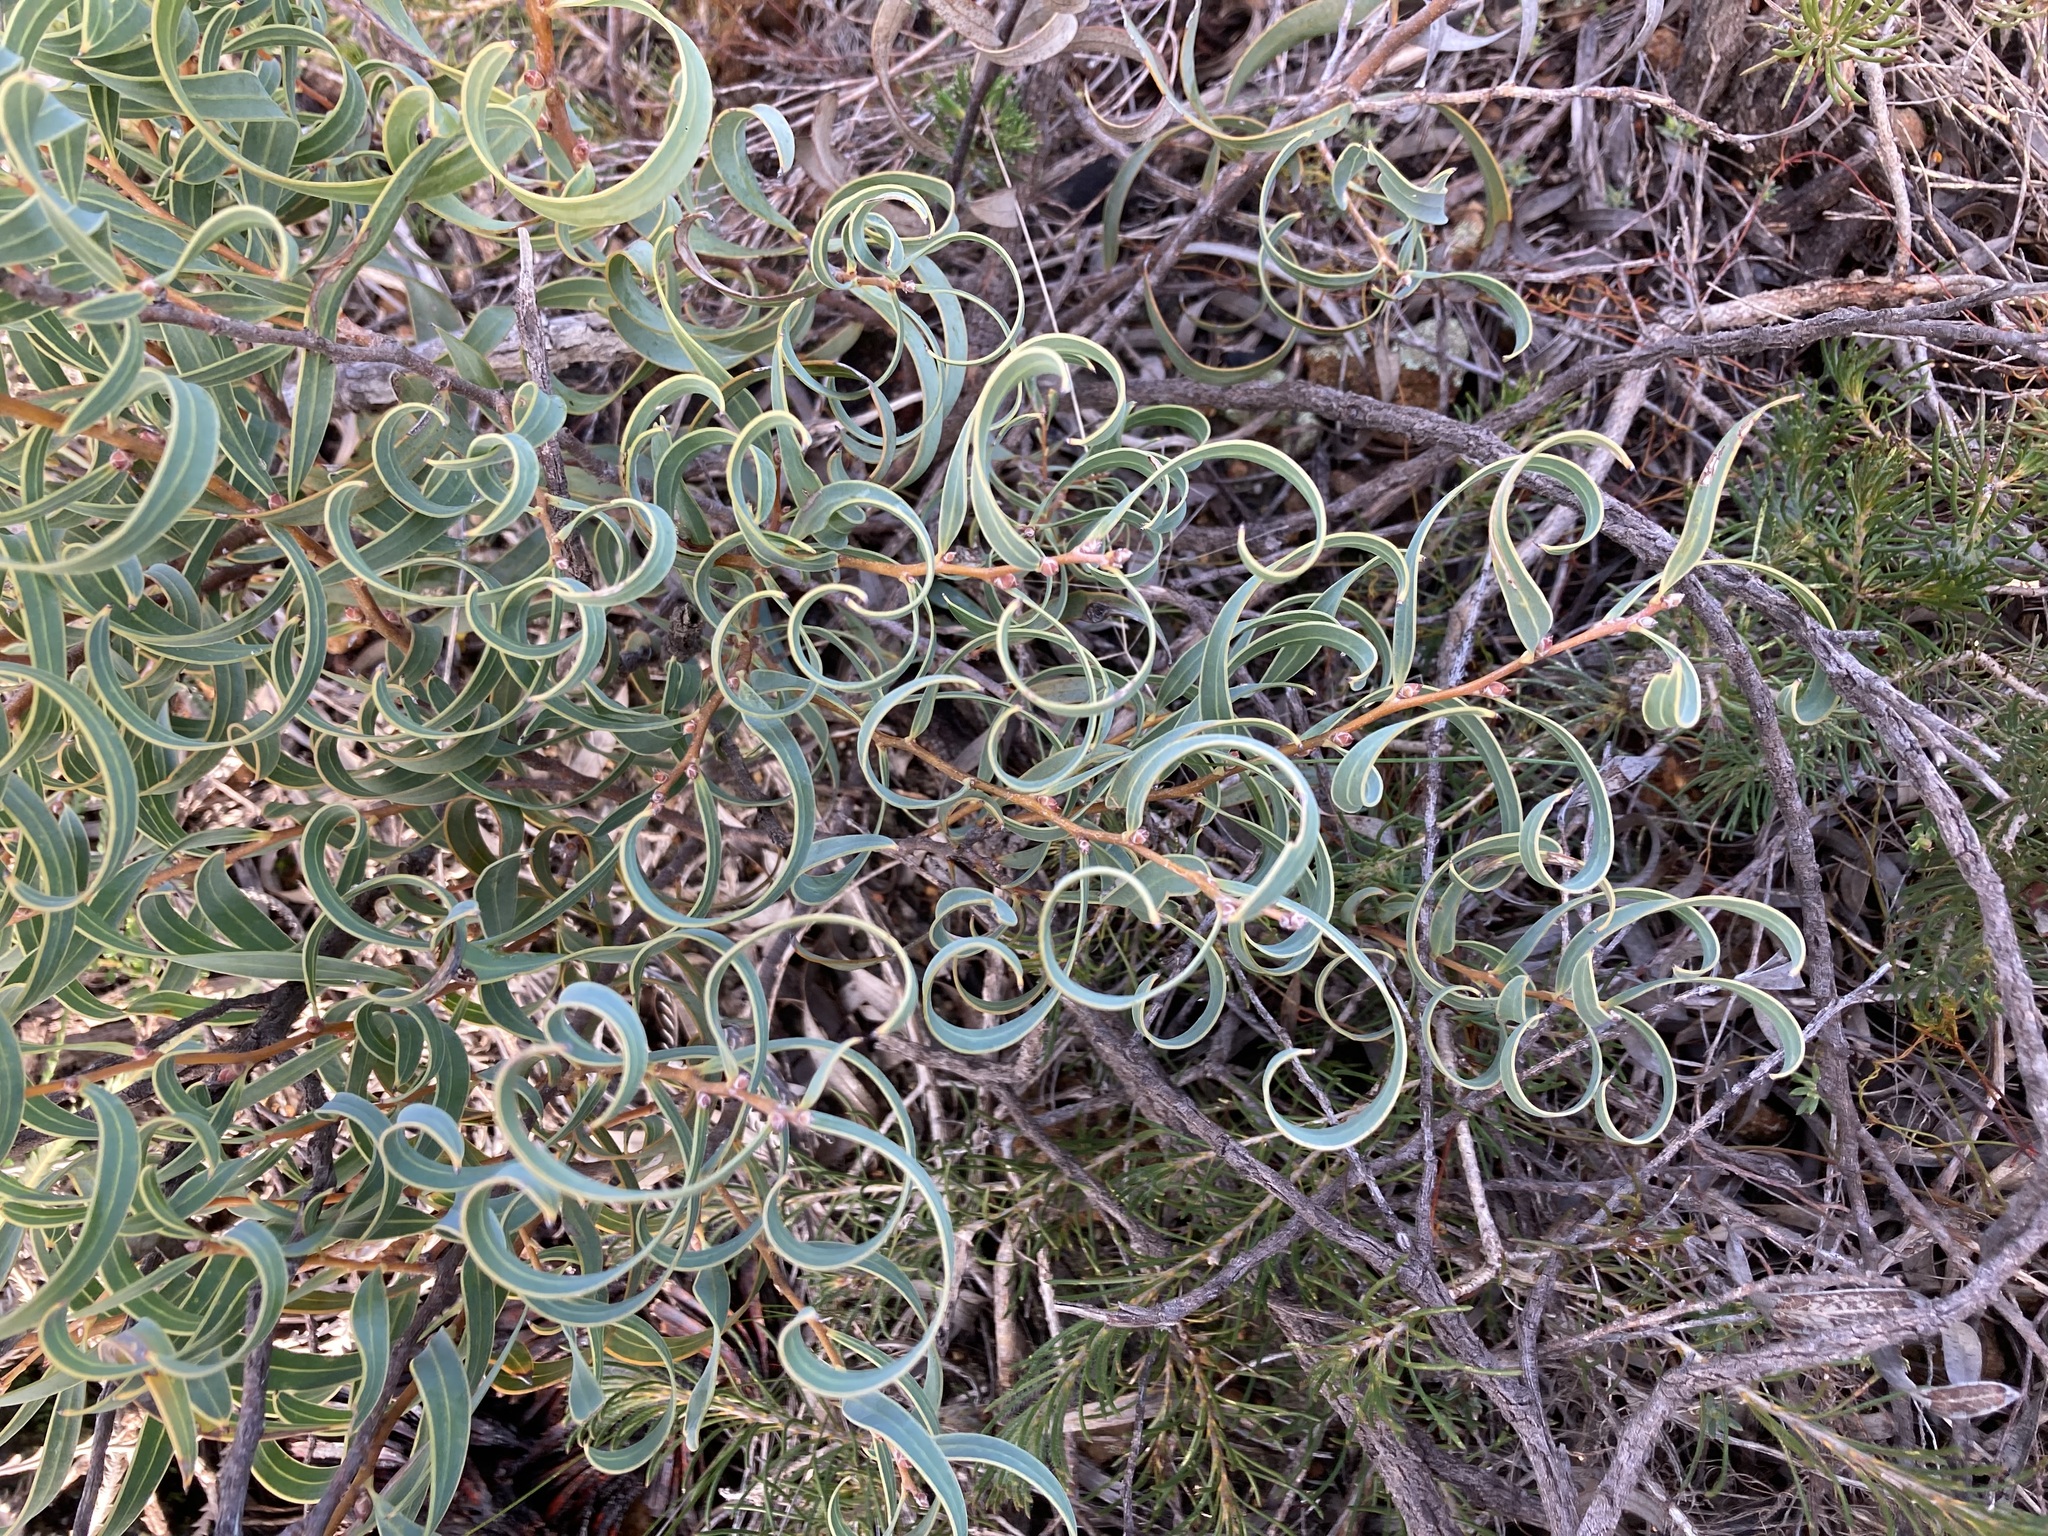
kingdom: Plantae
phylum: Tracheophyta
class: Magnoliopsida
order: Proteales
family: Proteaceae
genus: Hakea
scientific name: Hakea stenocarpa
